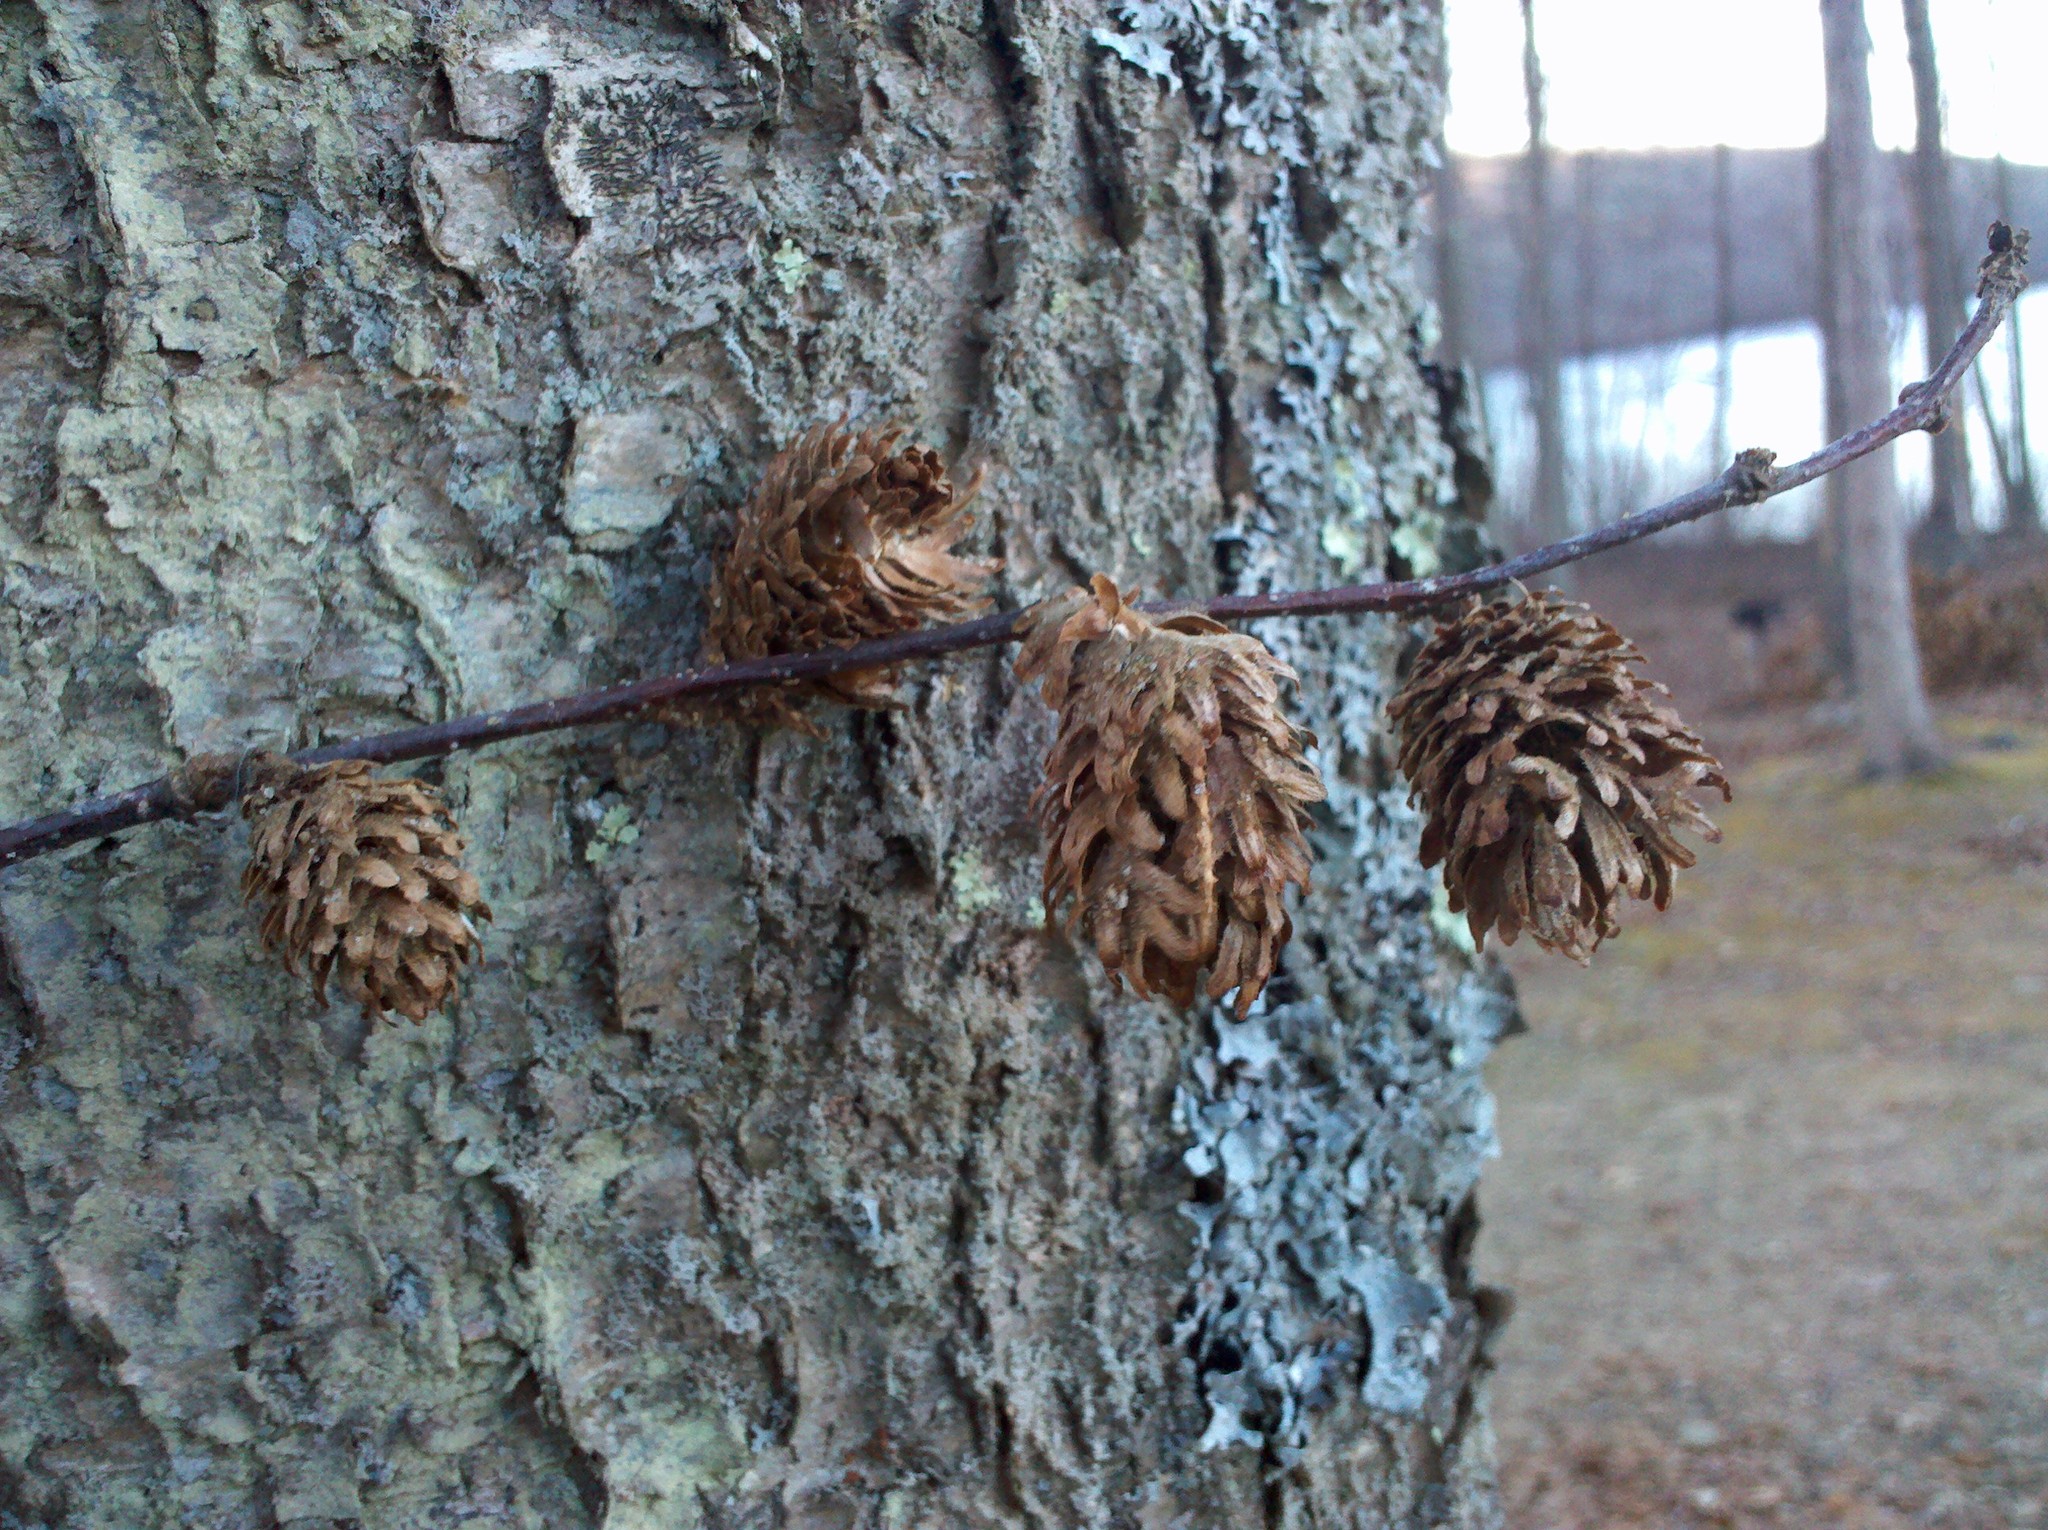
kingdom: Plantae
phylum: Tracheophyta
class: Magnoliopsida
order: Fagales
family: Betulaceae
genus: Betula
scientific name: Betula alleghaniensis
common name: Yellow birch
